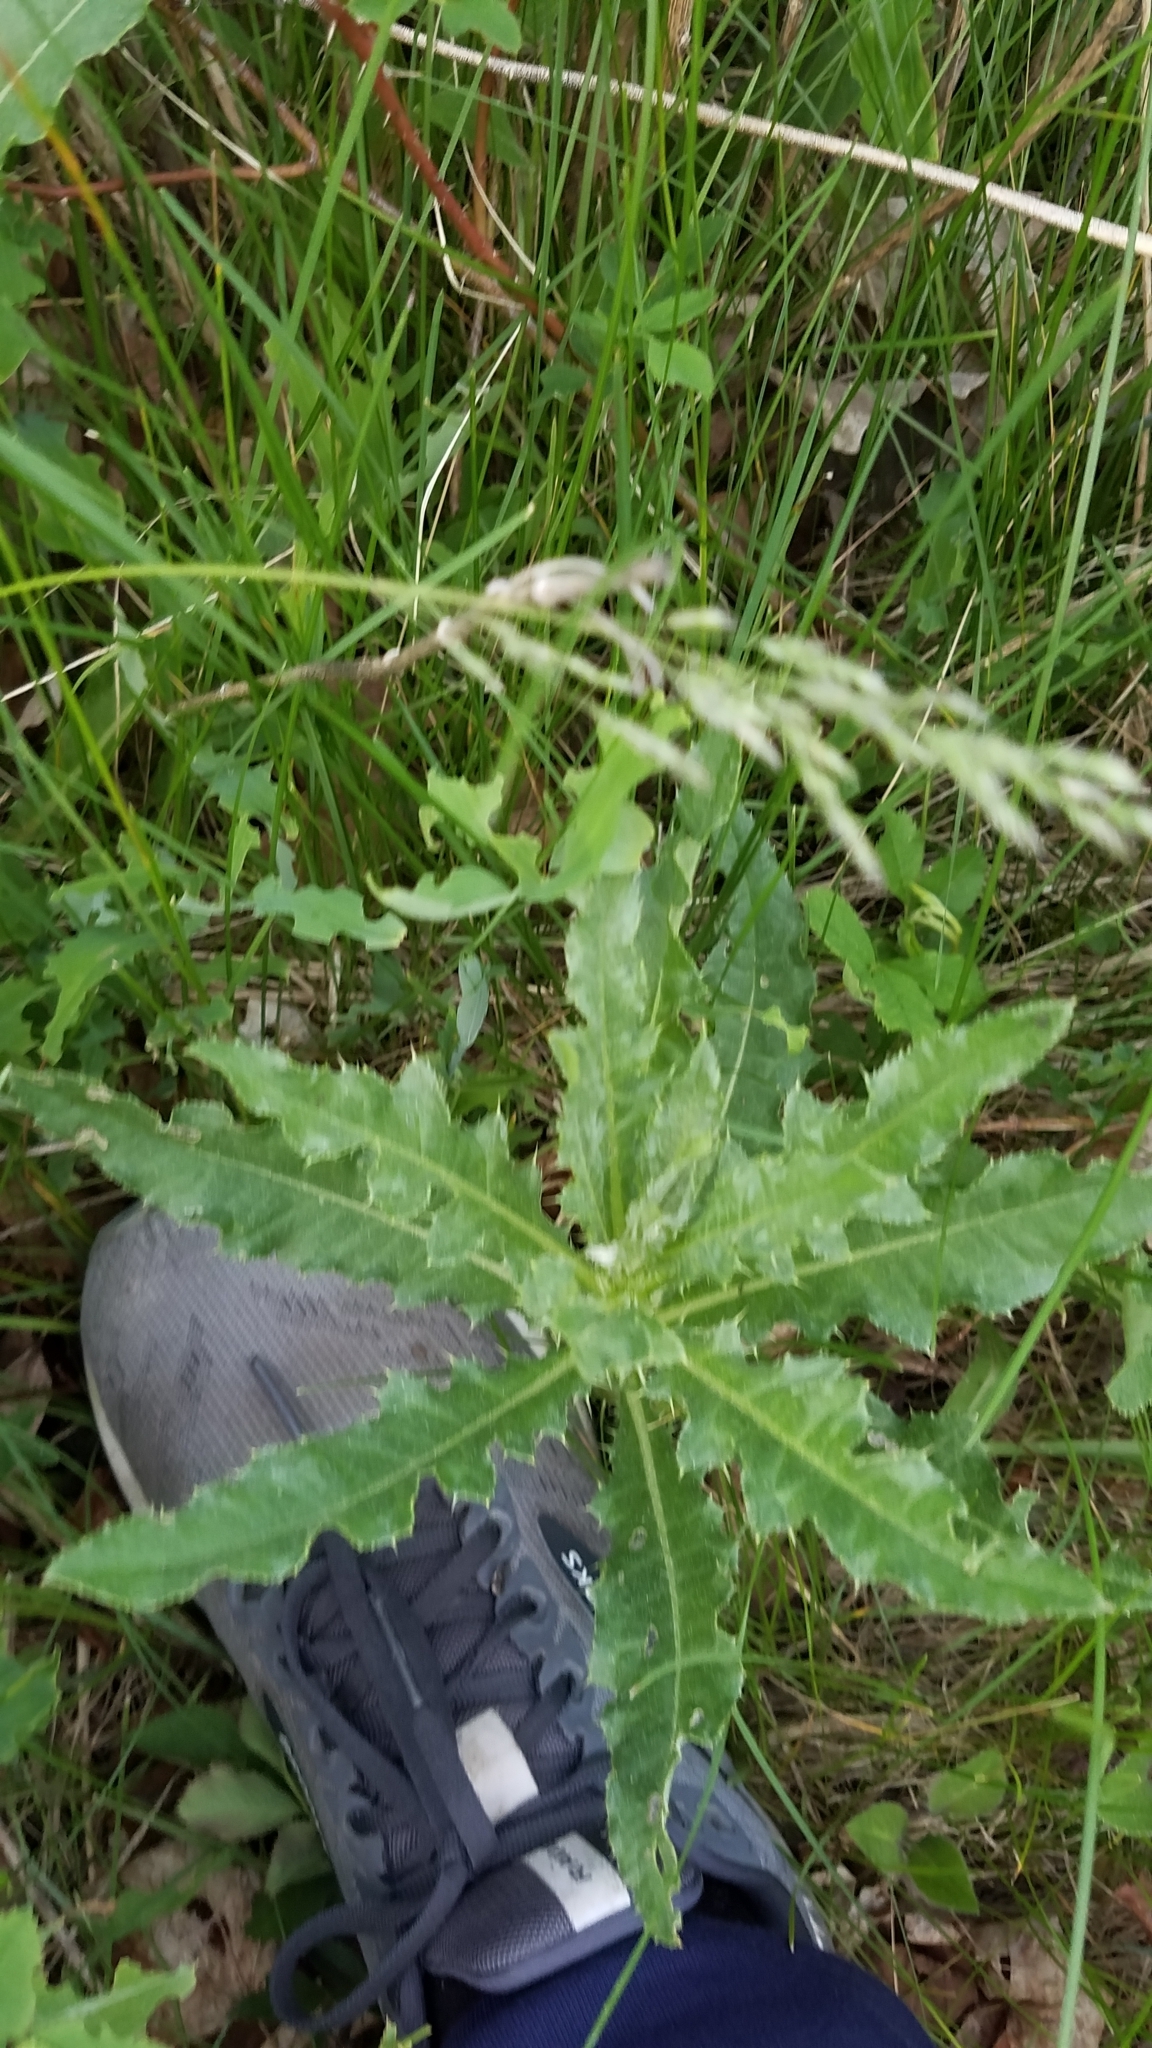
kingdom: Plantae
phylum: Tracheophyta
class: Magnoliopsida
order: Asterales
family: Asteraceae
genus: Cirsium
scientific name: Cirsium arvense
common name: Creeping thistle
